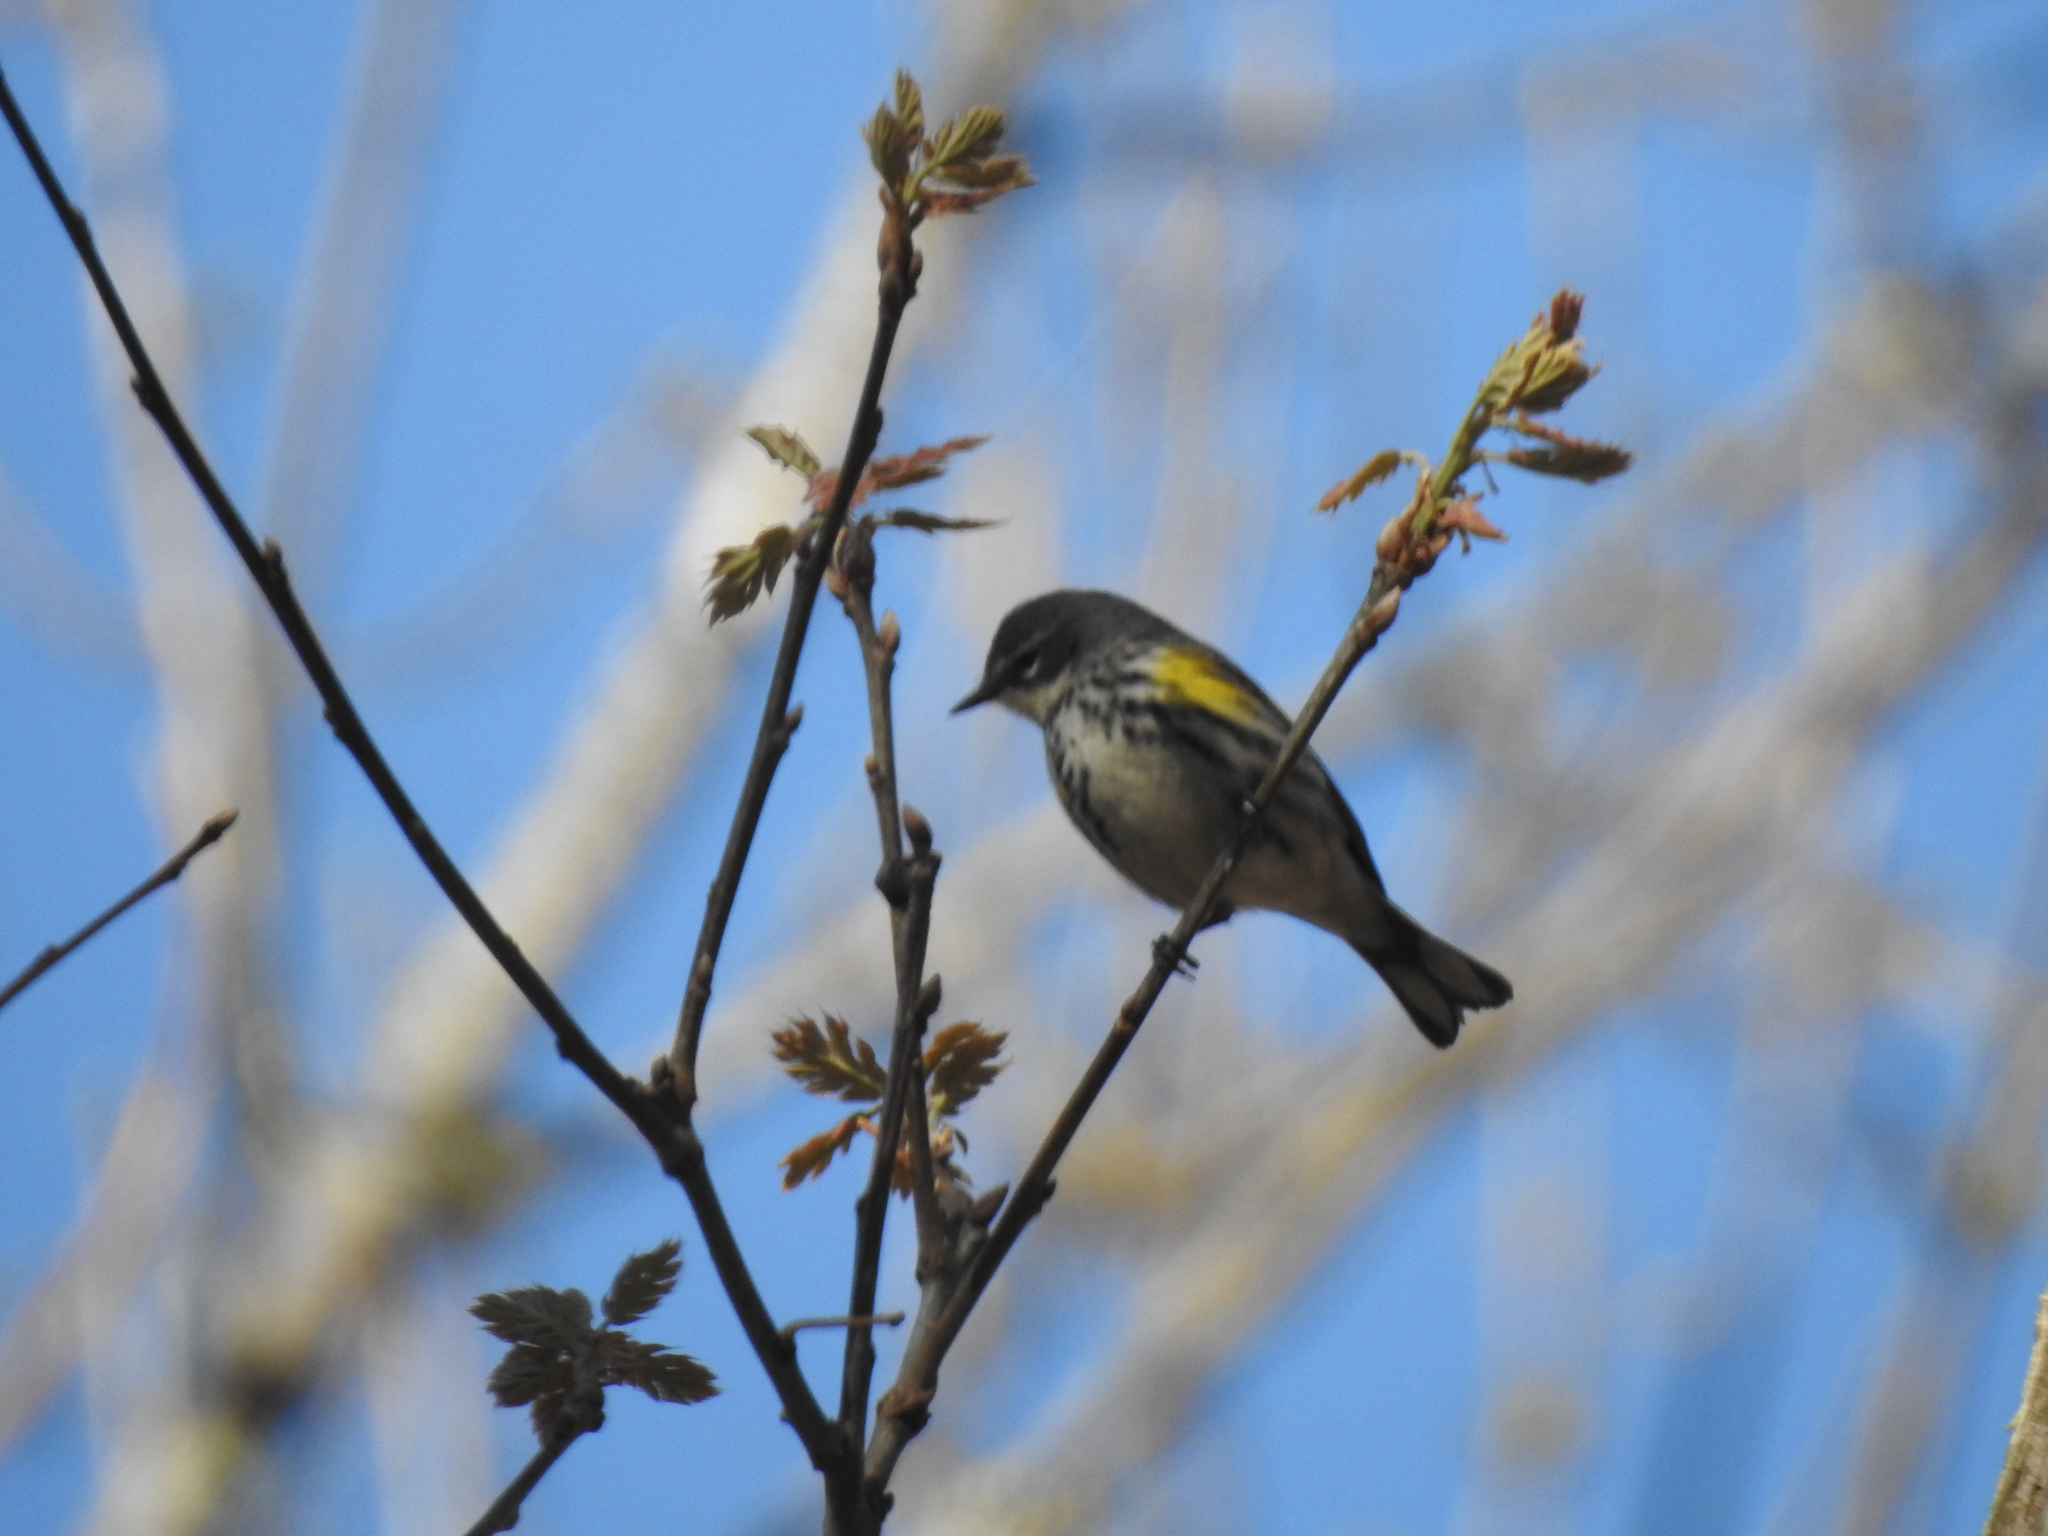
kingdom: Animalia
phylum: Chordata
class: Aves
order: Passeriformes
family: Parulidae
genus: Setophaga
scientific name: Setophaga coronata
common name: Myrtle warbler
